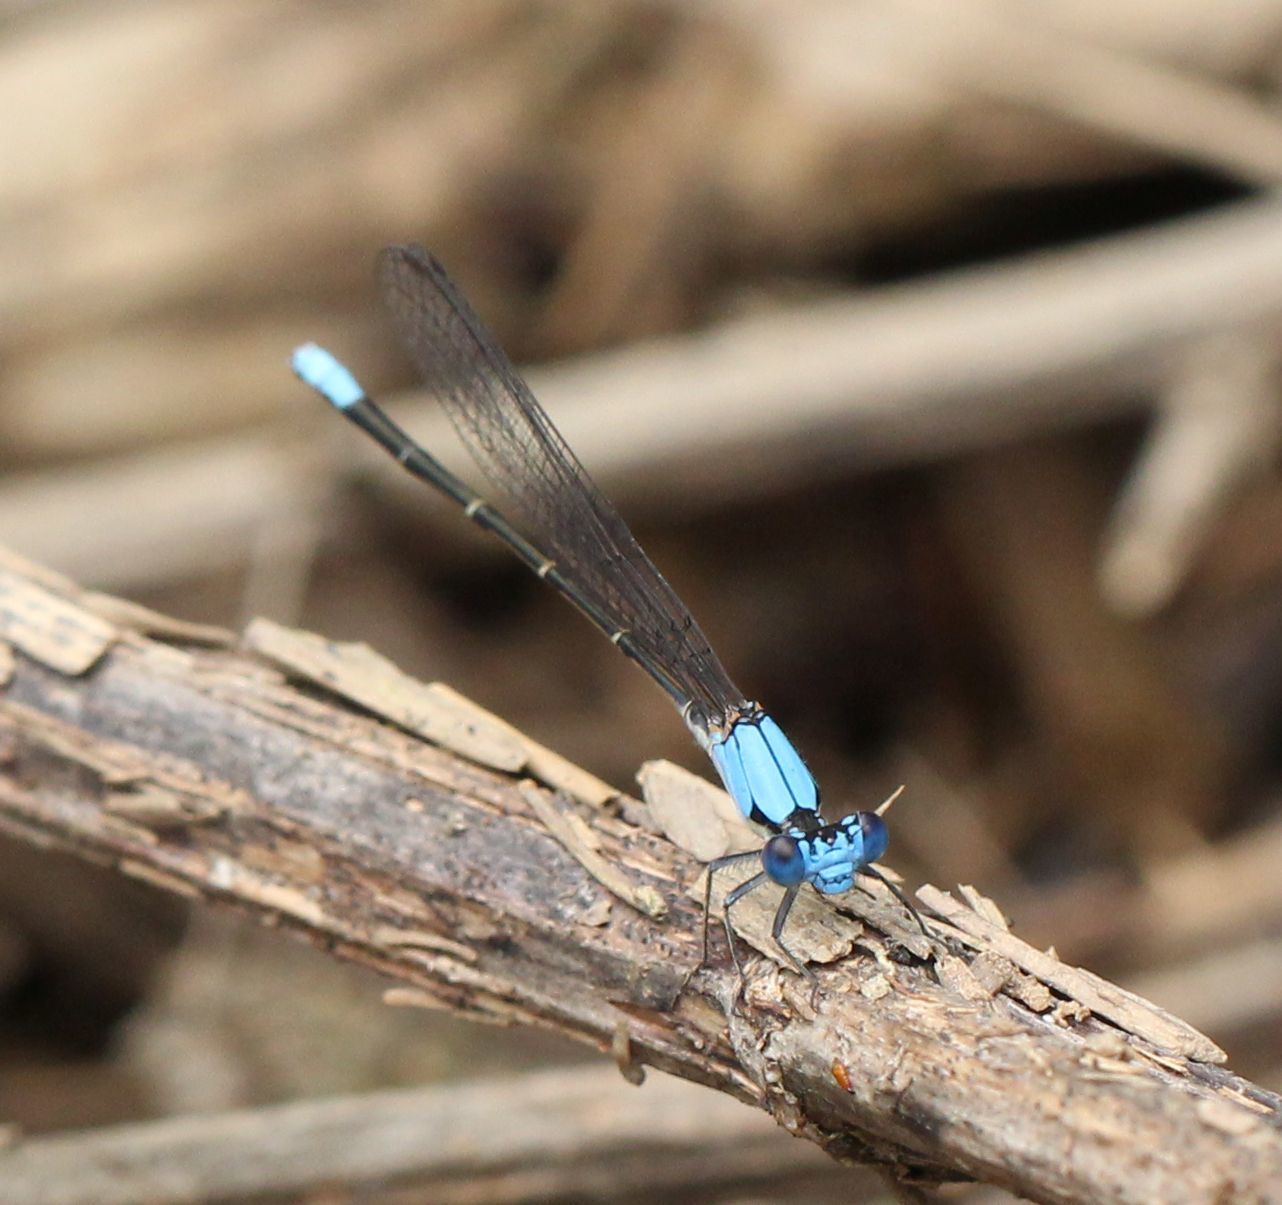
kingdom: Animalia
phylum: Arthropoda
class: Insecta
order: Odonata
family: Coenagrionidae
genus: Argia
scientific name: Argia apicalis
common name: Blue-fronted dancer
